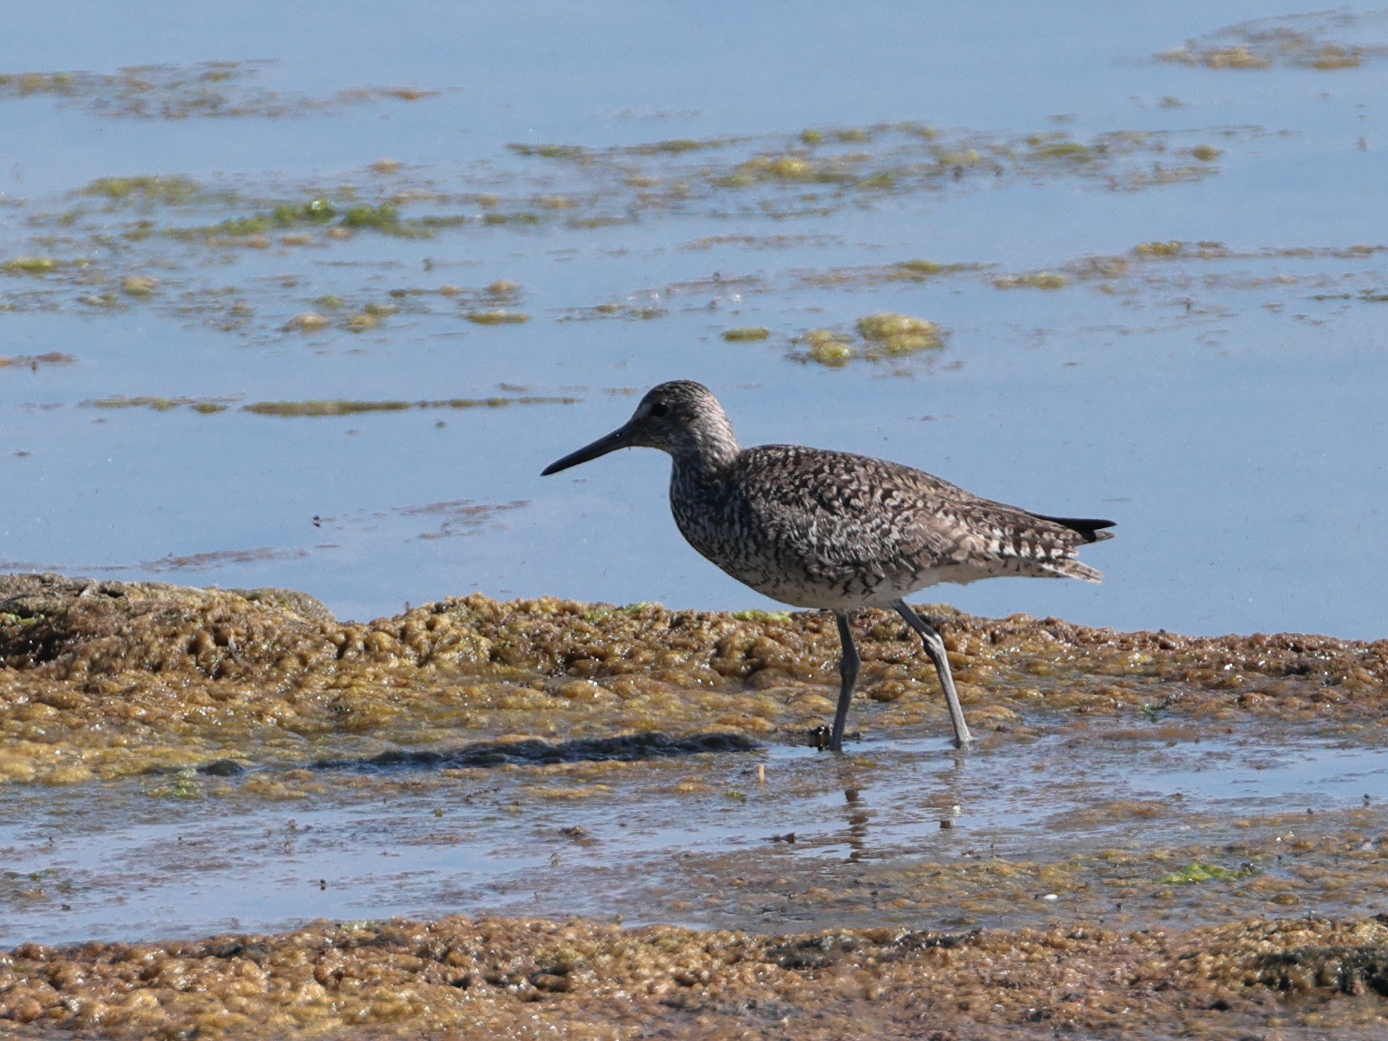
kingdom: Animalia
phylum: Chordata
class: Aves
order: Charadriiformes
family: Scolopacidae
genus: Tringa
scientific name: Tringa semipalmata
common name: Willet
